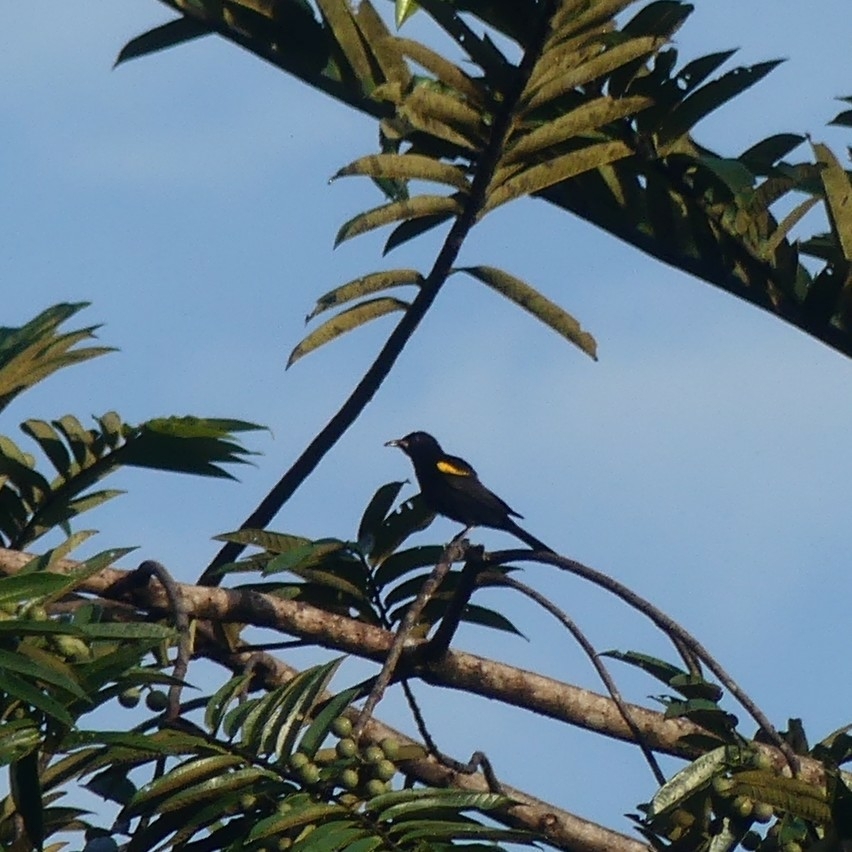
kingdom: Animalia
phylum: Chordata
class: Aves
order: Passeriformes
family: Icteridae
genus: Icterus
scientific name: Icterus cayanensis
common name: Epaulet oriole
